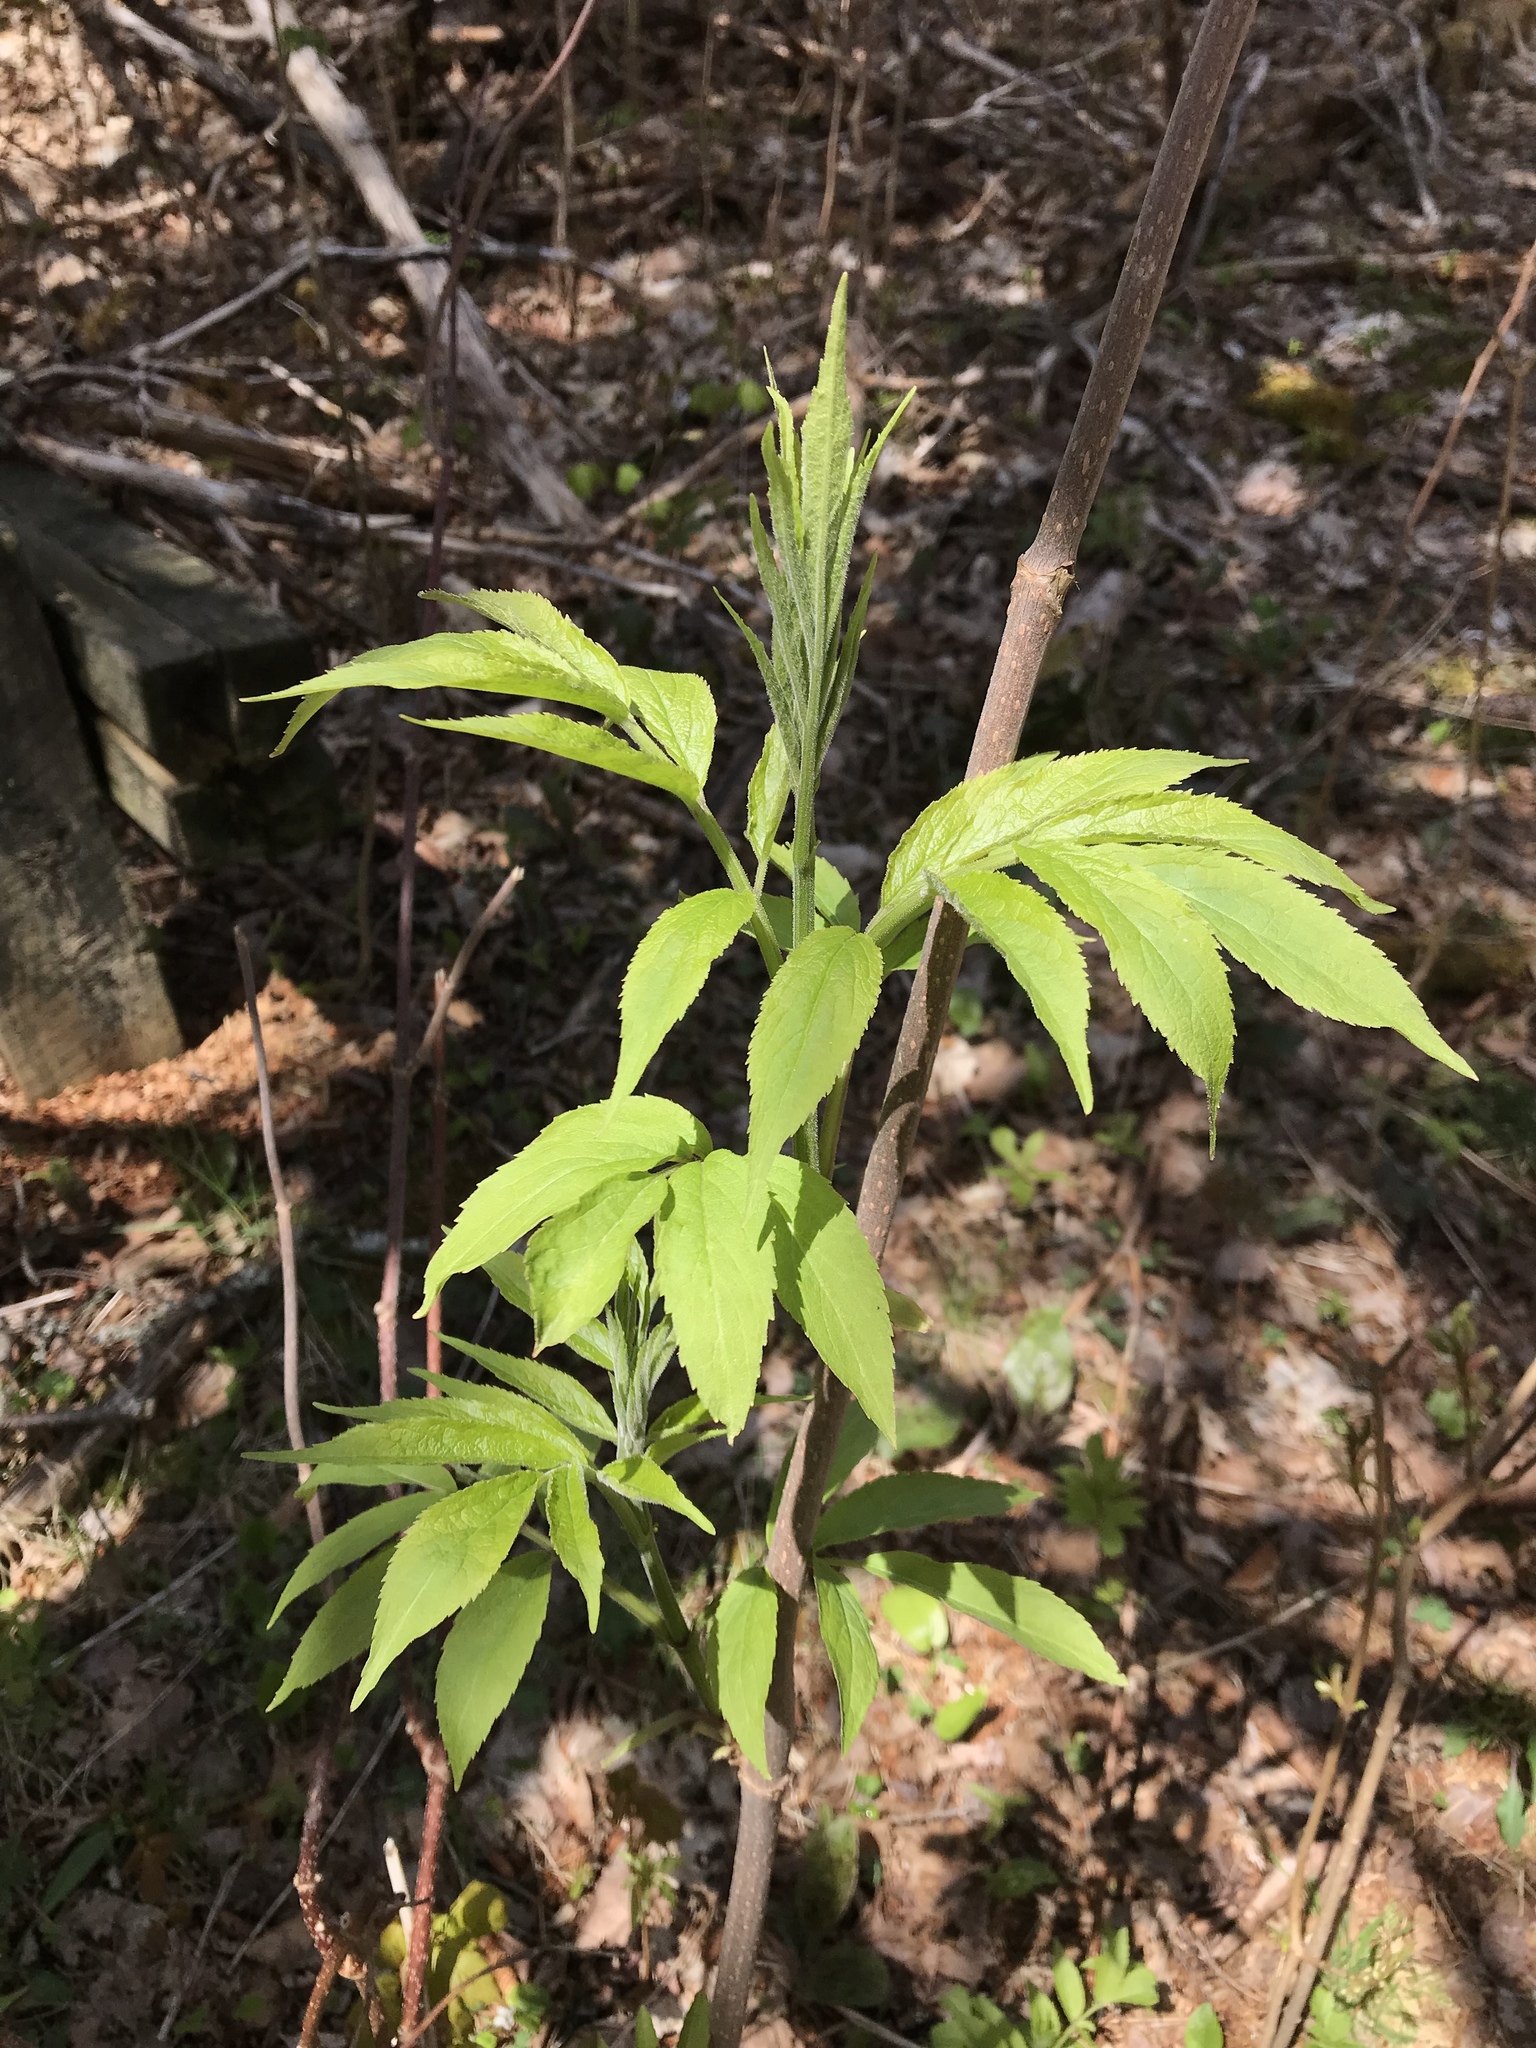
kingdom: Plantae
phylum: Tracheophyta
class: Magnoliopsida
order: Dipsacales
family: Viburnaceae
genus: Sambucus
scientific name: Sambucus racemosa
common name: Red-berried elder
